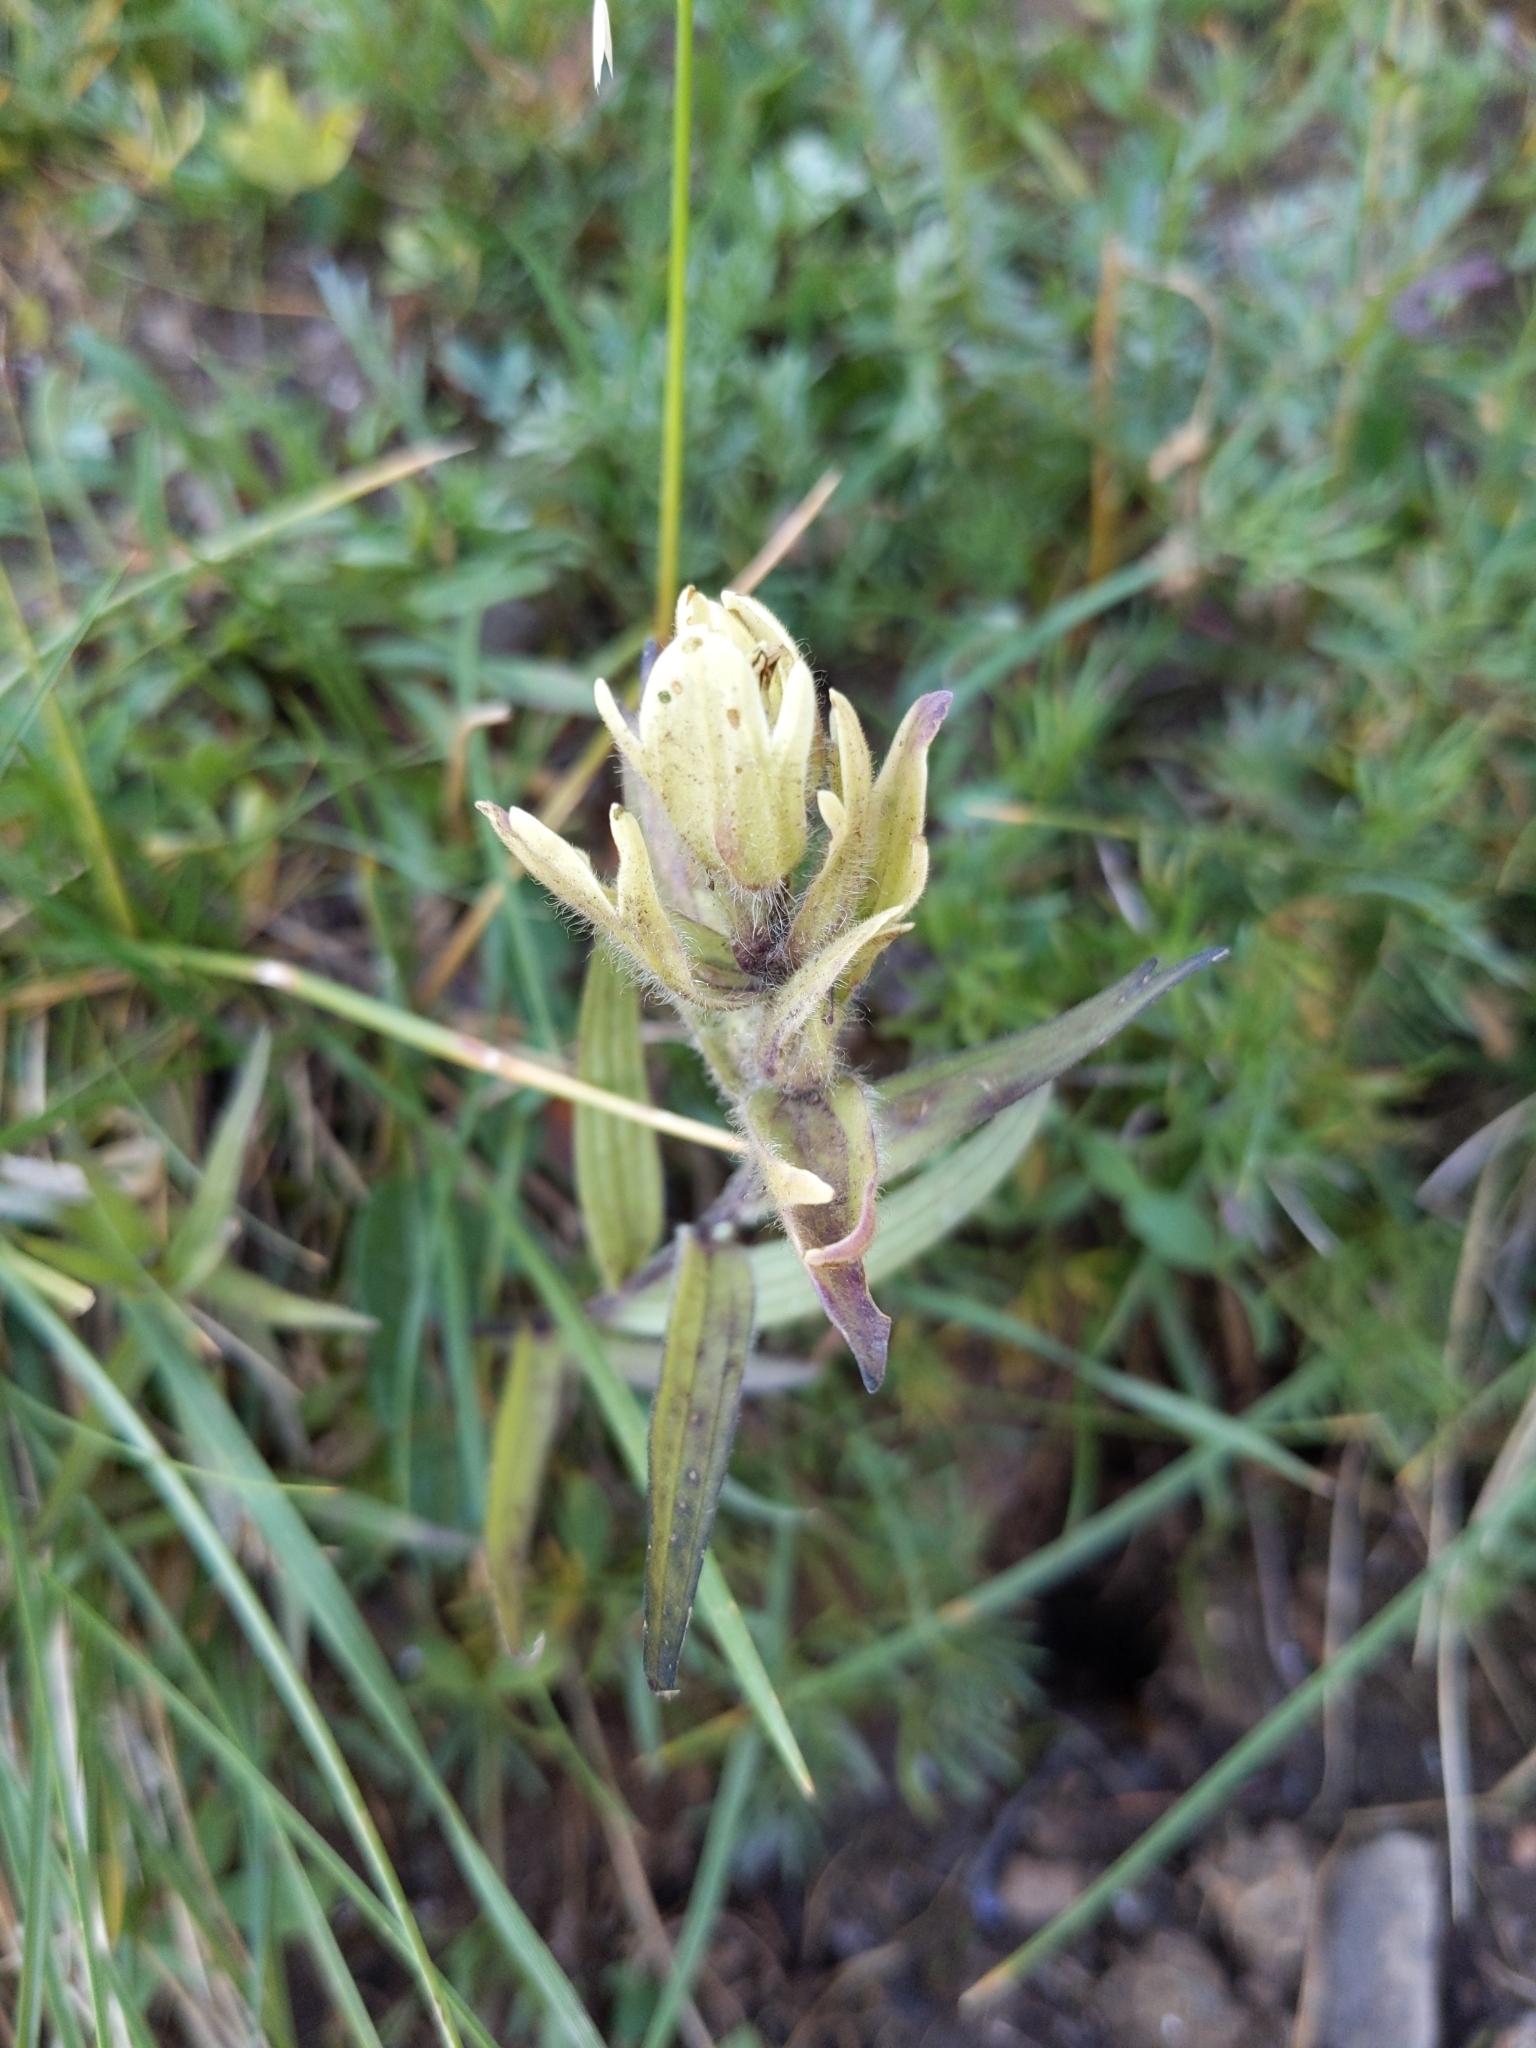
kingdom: Plantae
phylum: Tracheophyta
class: Magnoliopsida
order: Lamiales
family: Orobanchaceae
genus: Castilleja
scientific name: Castilleja occidentalis
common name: Western paintbrush
